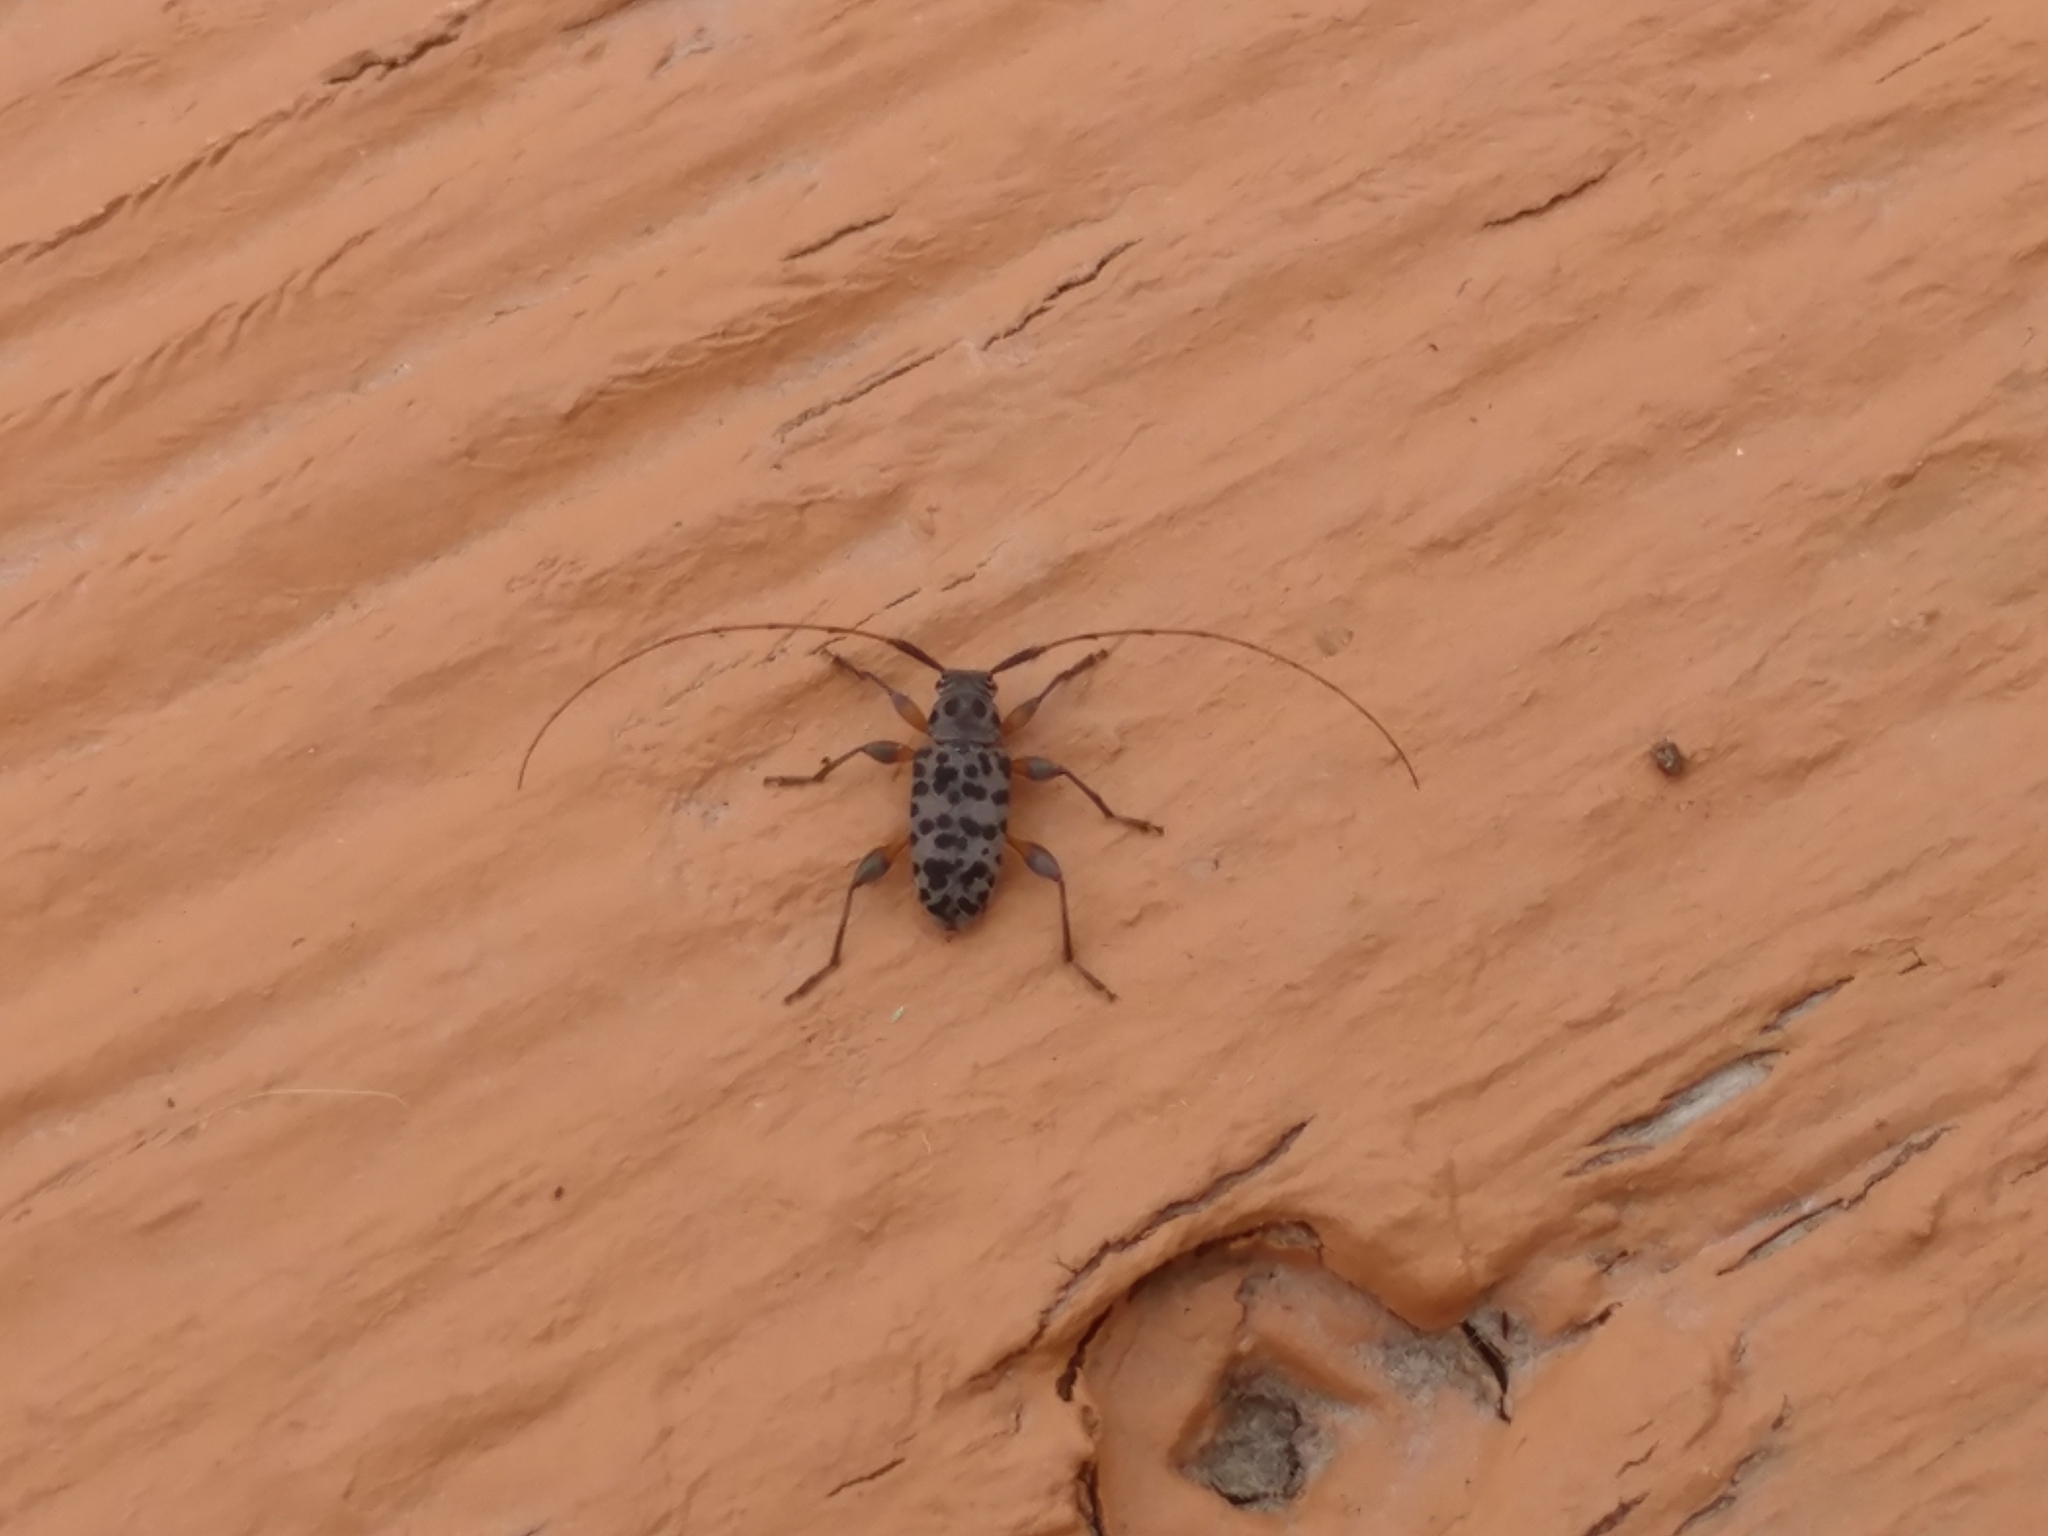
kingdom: Animalia
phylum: Arthropoda
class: Insecta
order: Coleoptera
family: Cerambycidae
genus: Hyperplatys
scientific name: Hyperplatys aspersa
